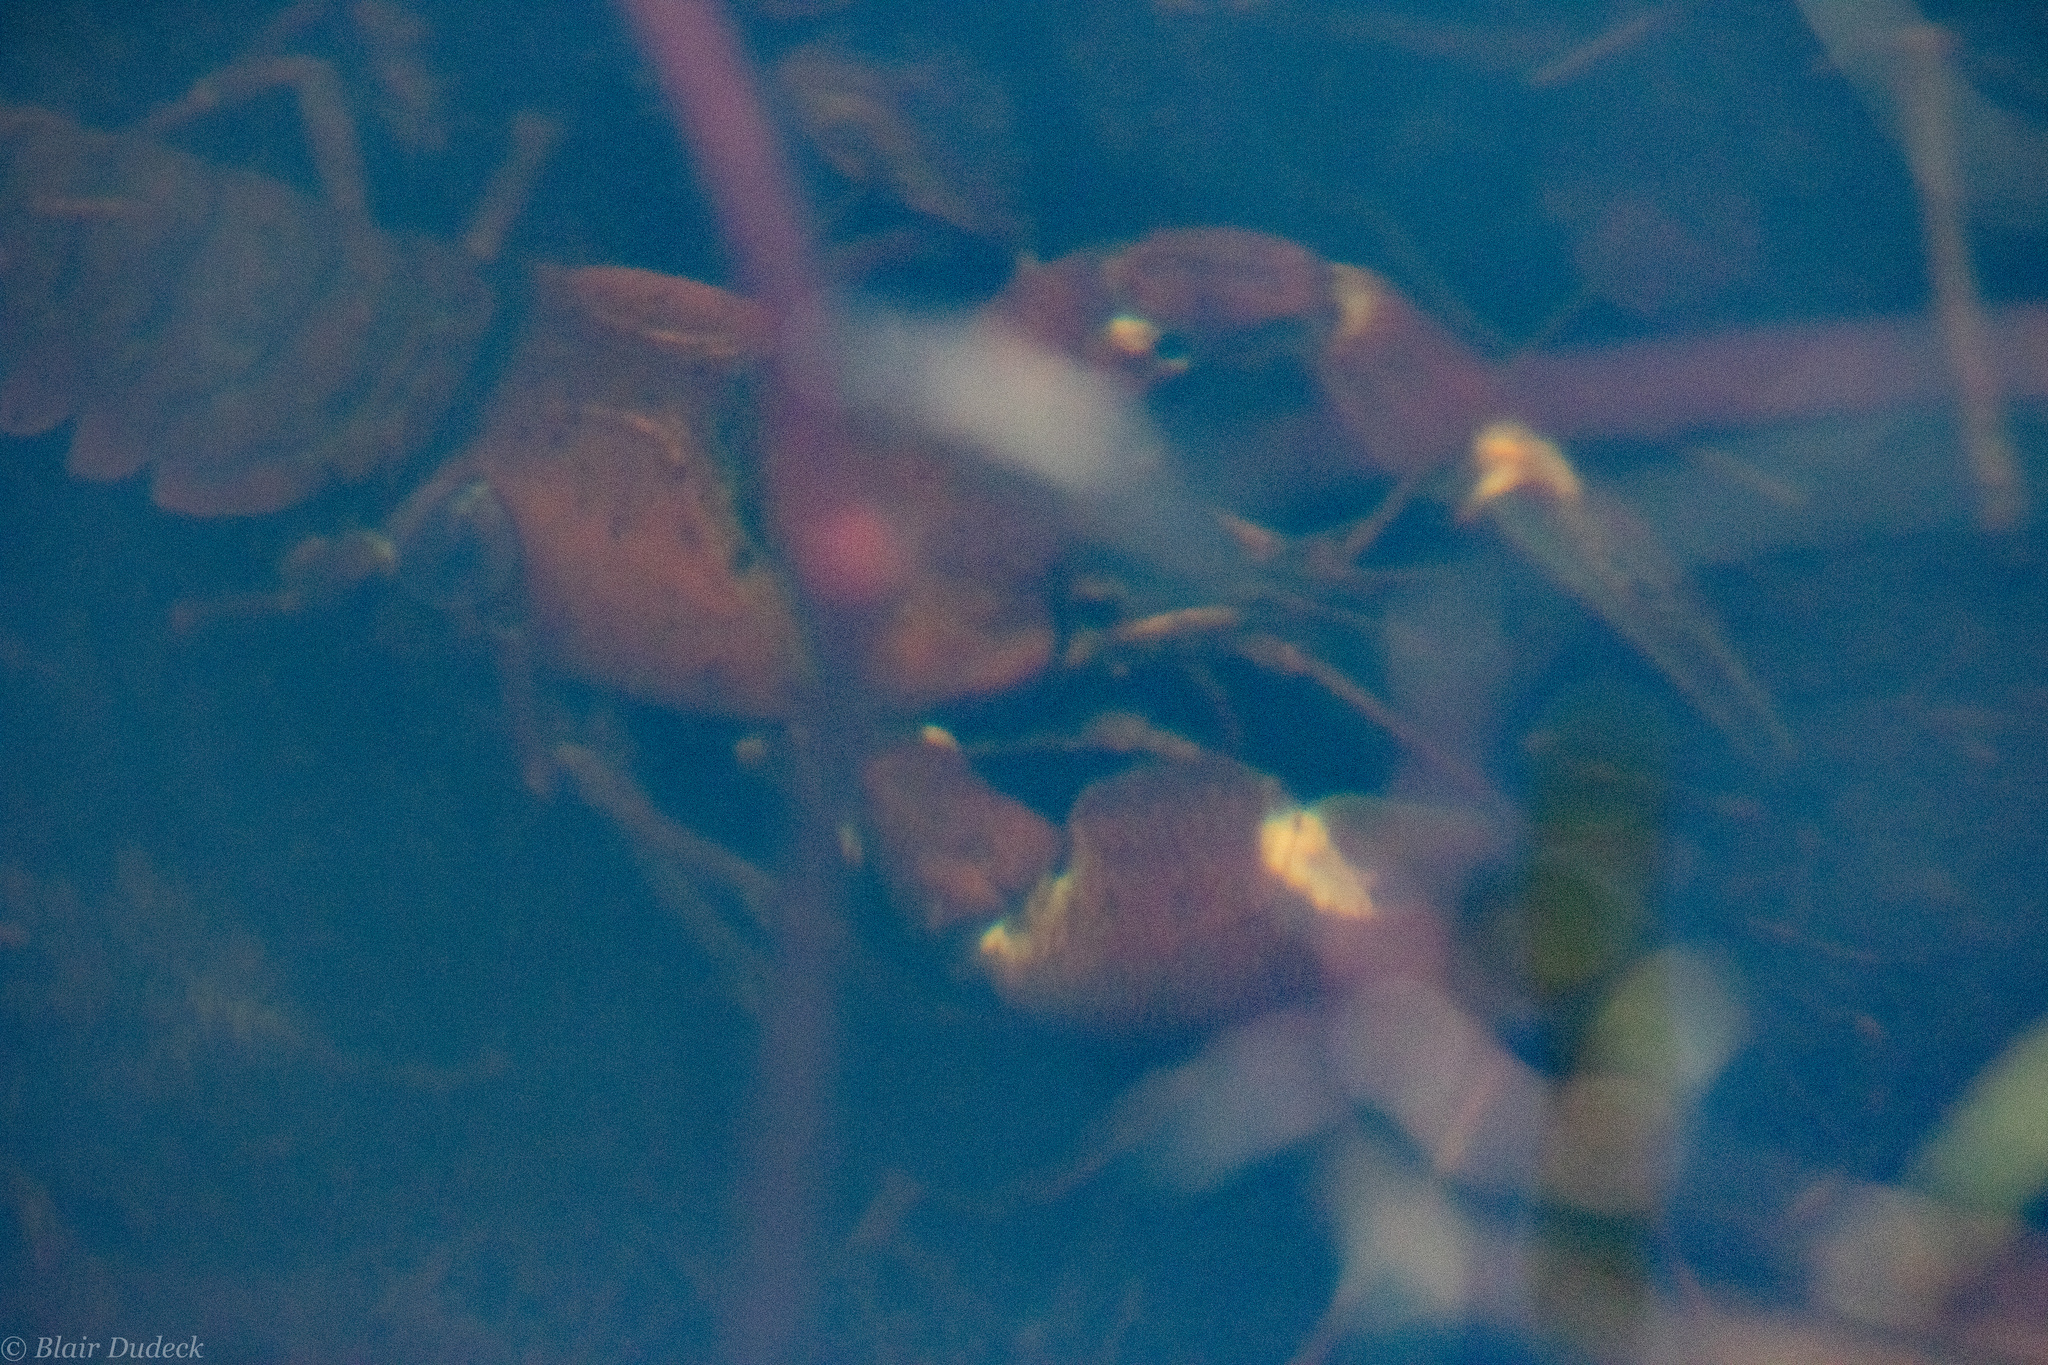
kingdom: Animalia
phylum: Arthropoda
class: Malacostraca
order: Decapoda
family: Astacidae
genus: Pacifastacus
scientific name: Pacifastacus leniusculus
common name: Signal crayfish
